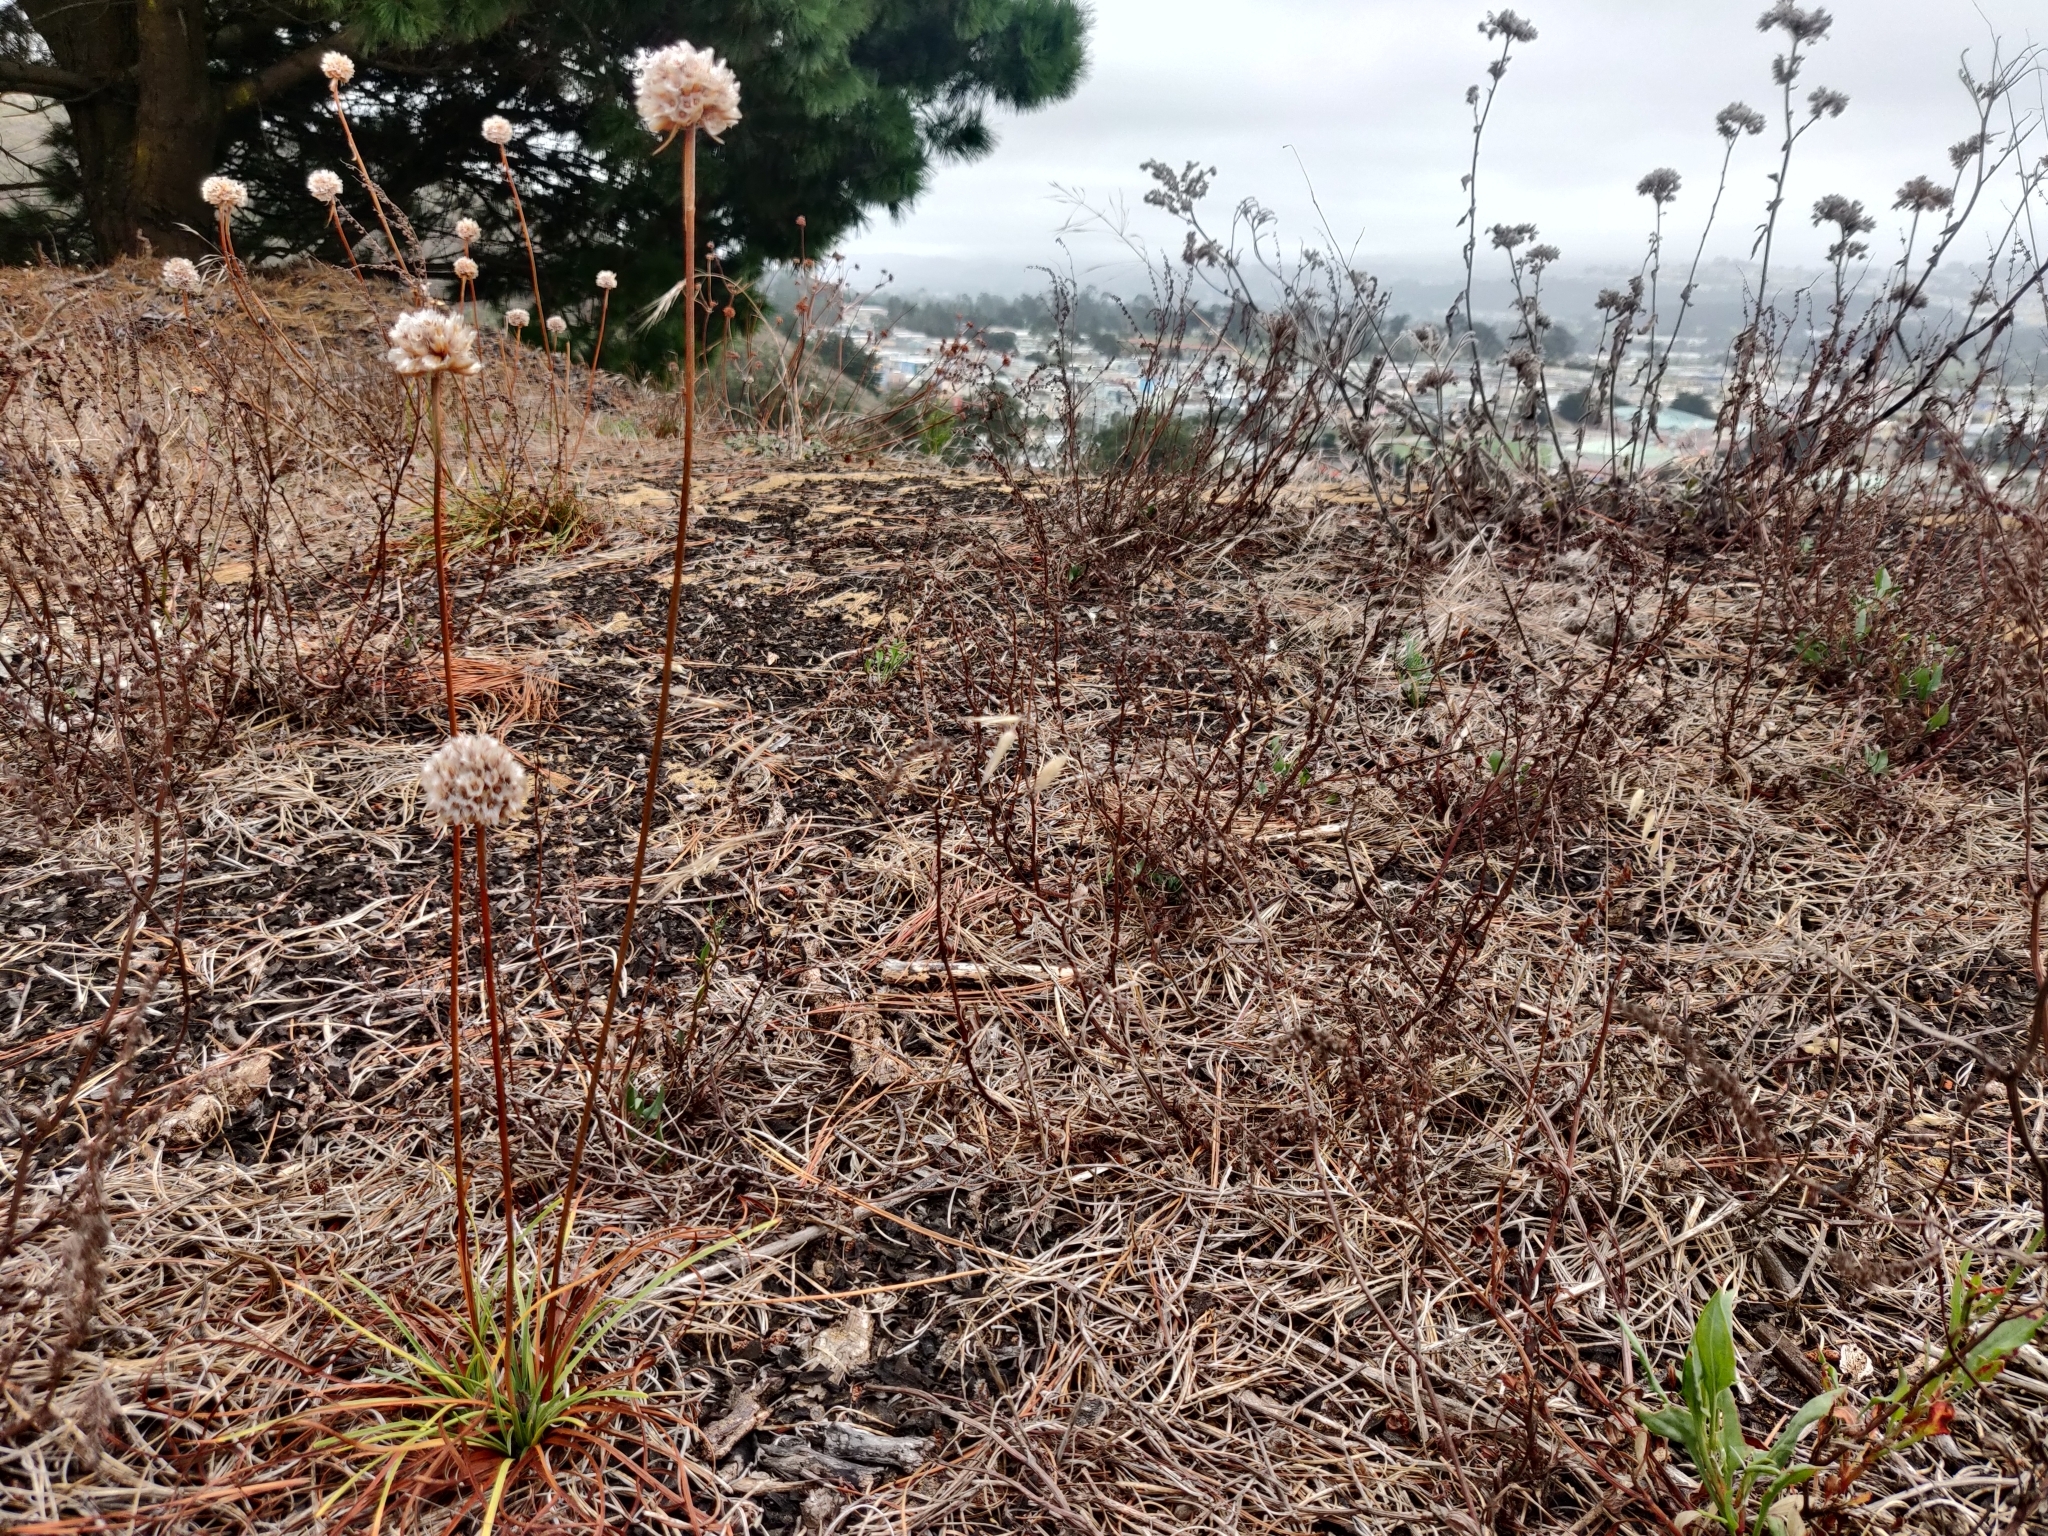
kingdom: Plantae
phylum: Tracheophyta
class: Magnoliopsida
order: Caryophyllales
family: Plumbaginaceae
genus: Armeria
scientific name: Armeria maritima
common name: Thrift
